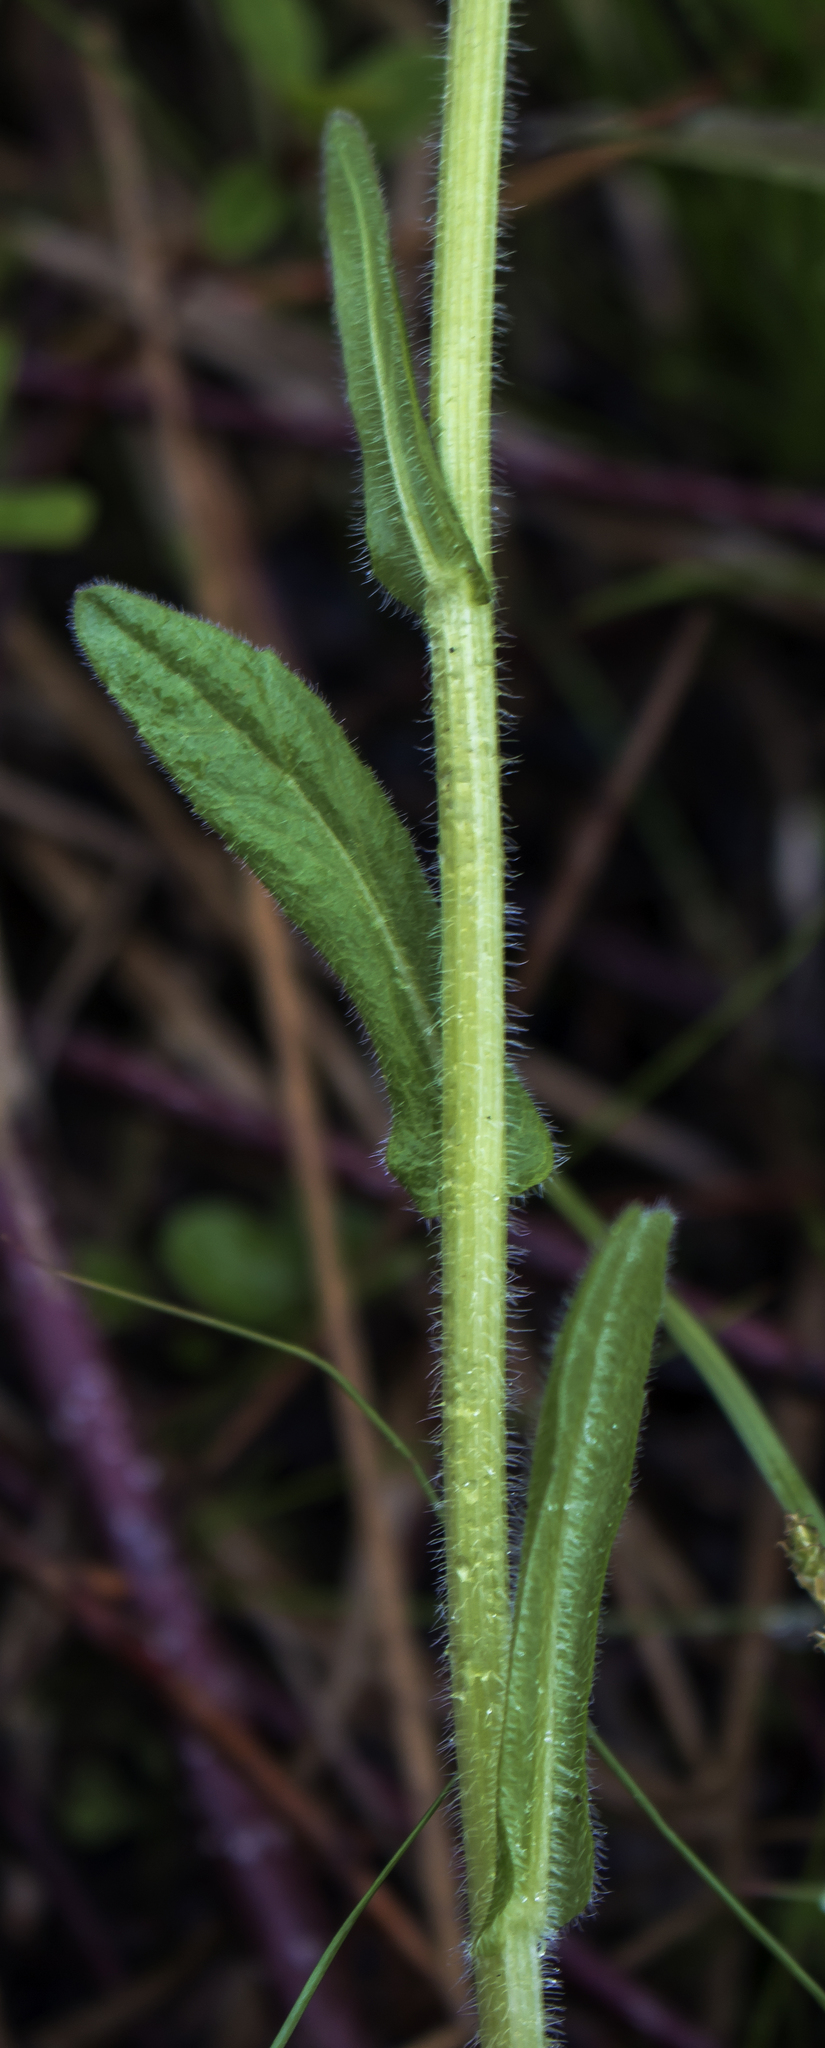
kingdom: Plantae
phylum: Tracheophyta
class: Magnoliopsida
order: Asterales
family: Asteraceae
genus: Erigeron
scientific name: Erigeron philadelphicus
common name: Robin's-plantain
